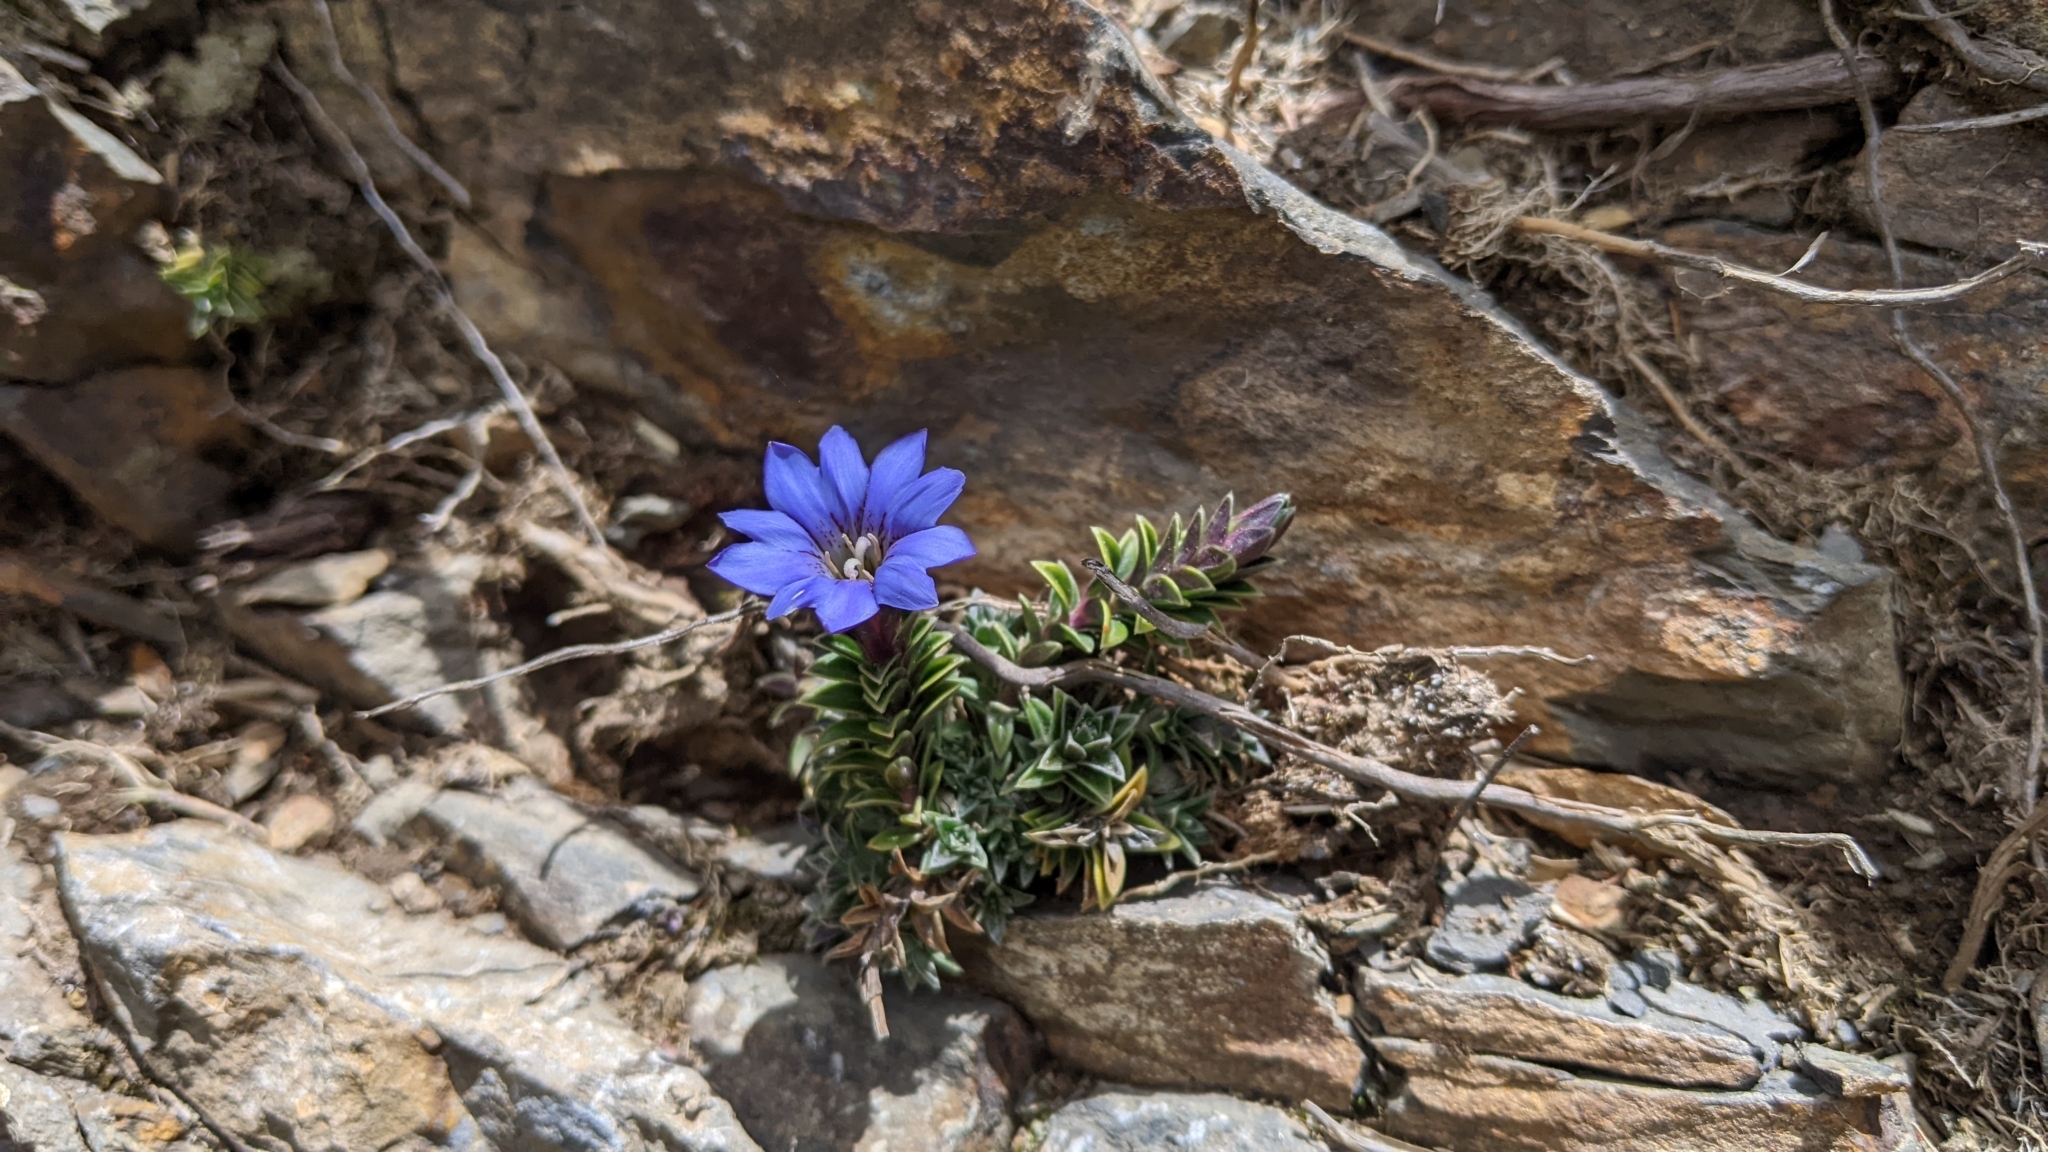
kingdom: Plantae
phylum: Tracheophyta
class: Magnoliopsida
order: Gentianales
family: Gentianaceae
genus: Gentiana
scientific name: Gentiana arisanensis
